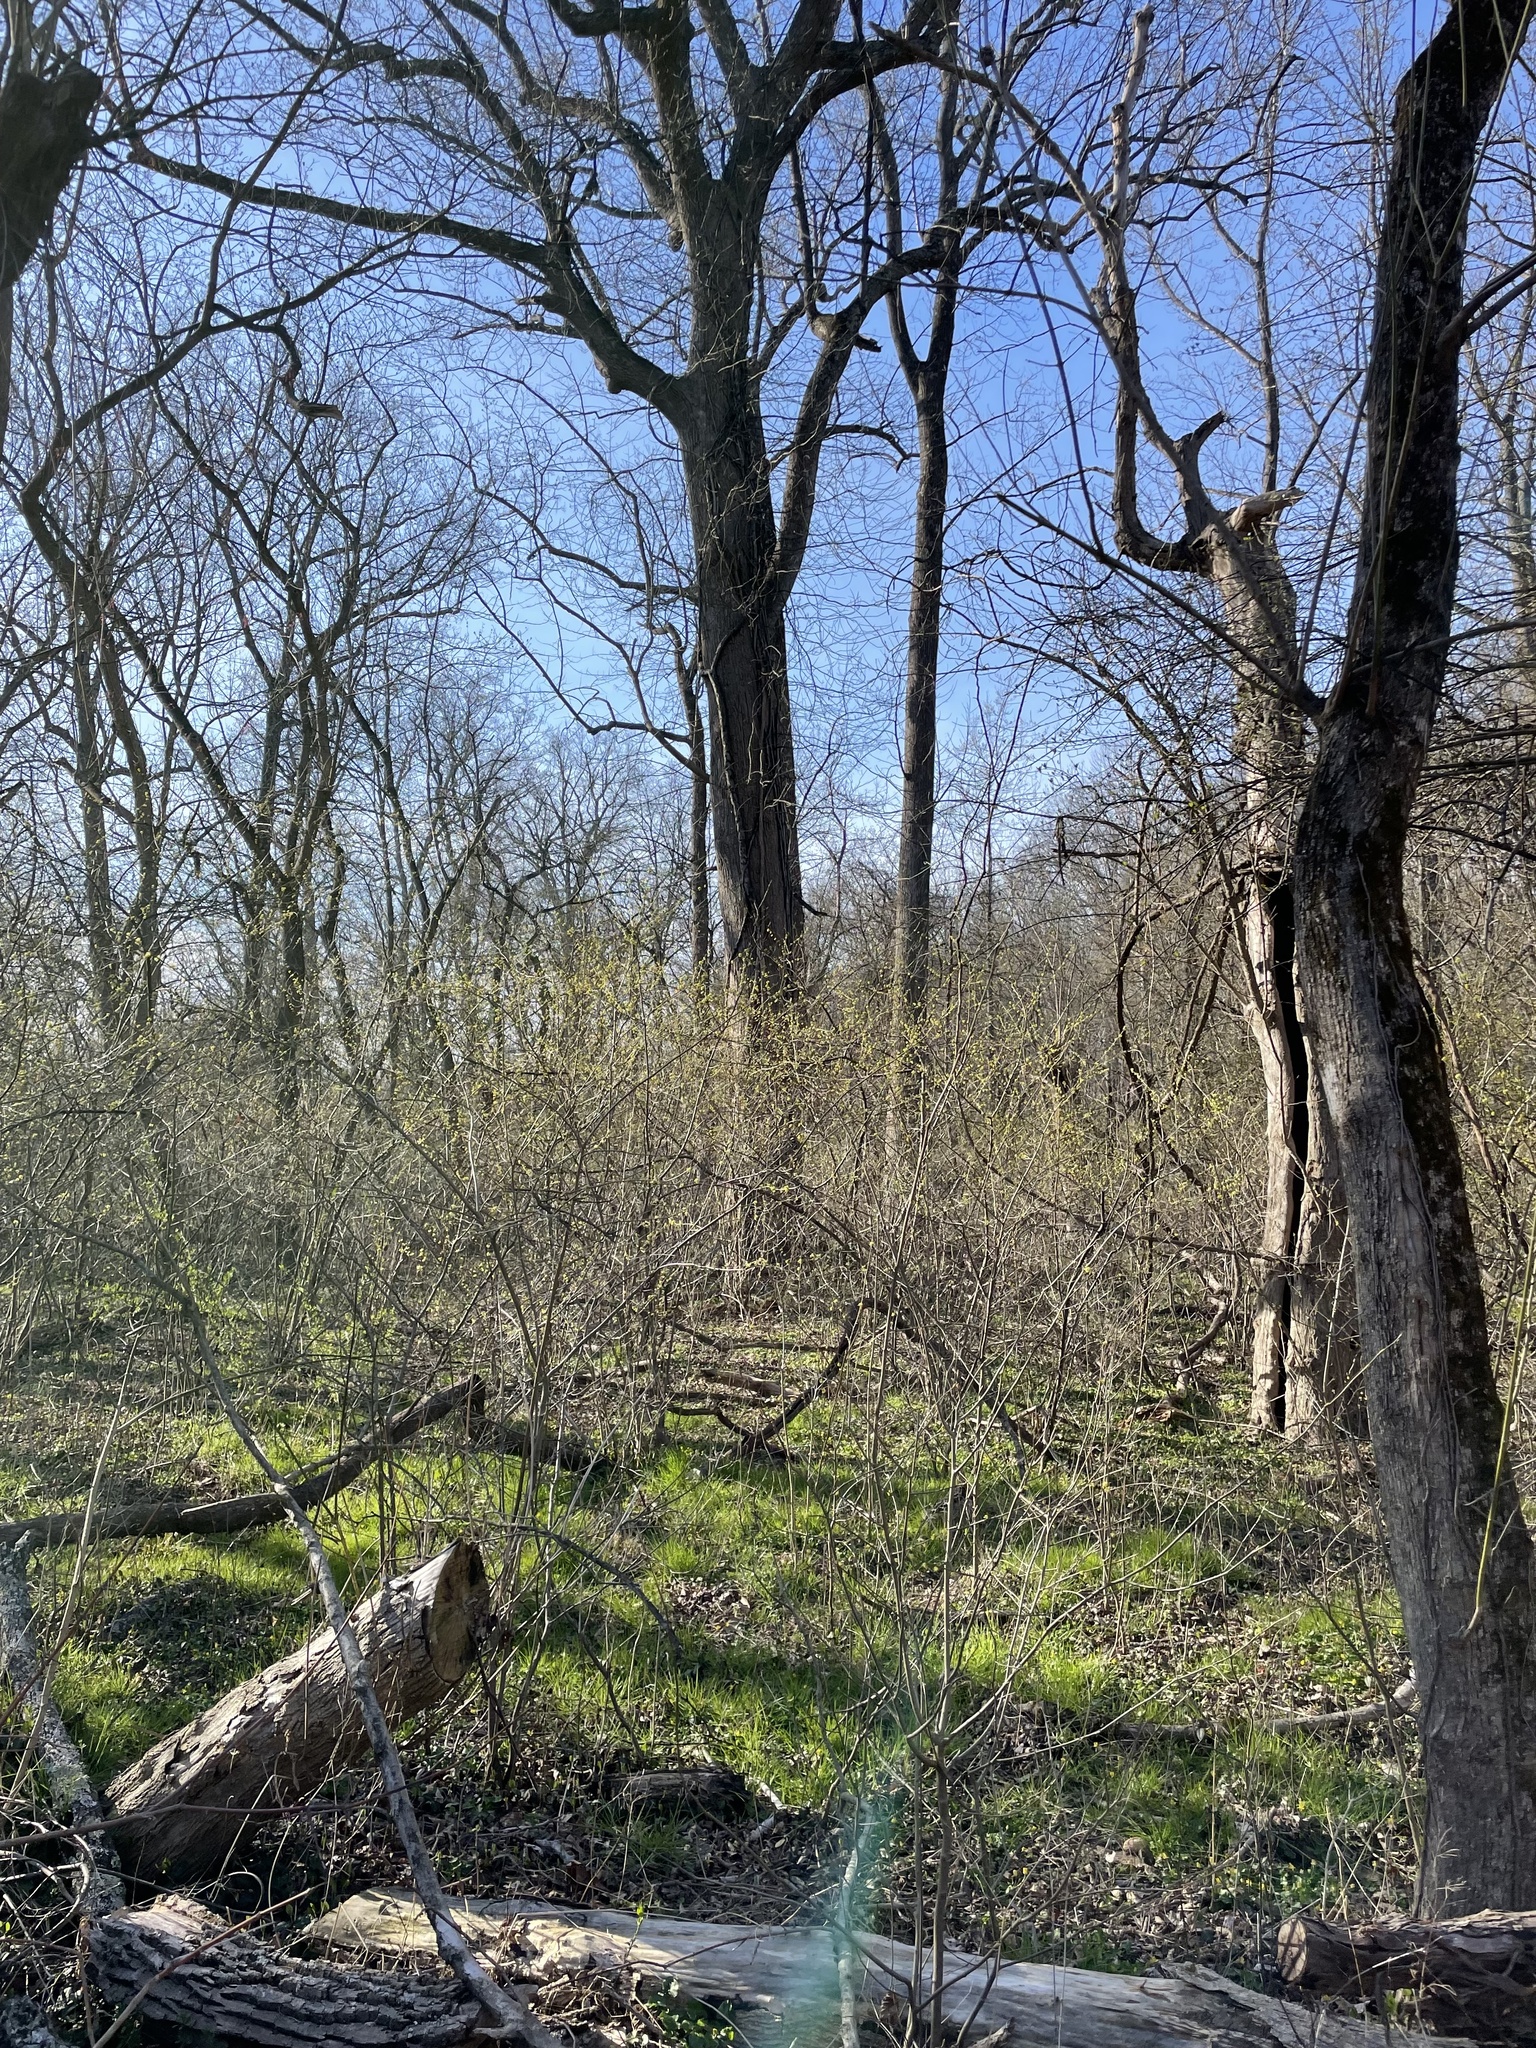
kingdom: Plantae
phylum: Tracheophyta
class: Magnoliopsida
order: Laurales
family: Lauraceae
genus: Lindera
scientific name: Lindera benzoin
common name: Spicebush
